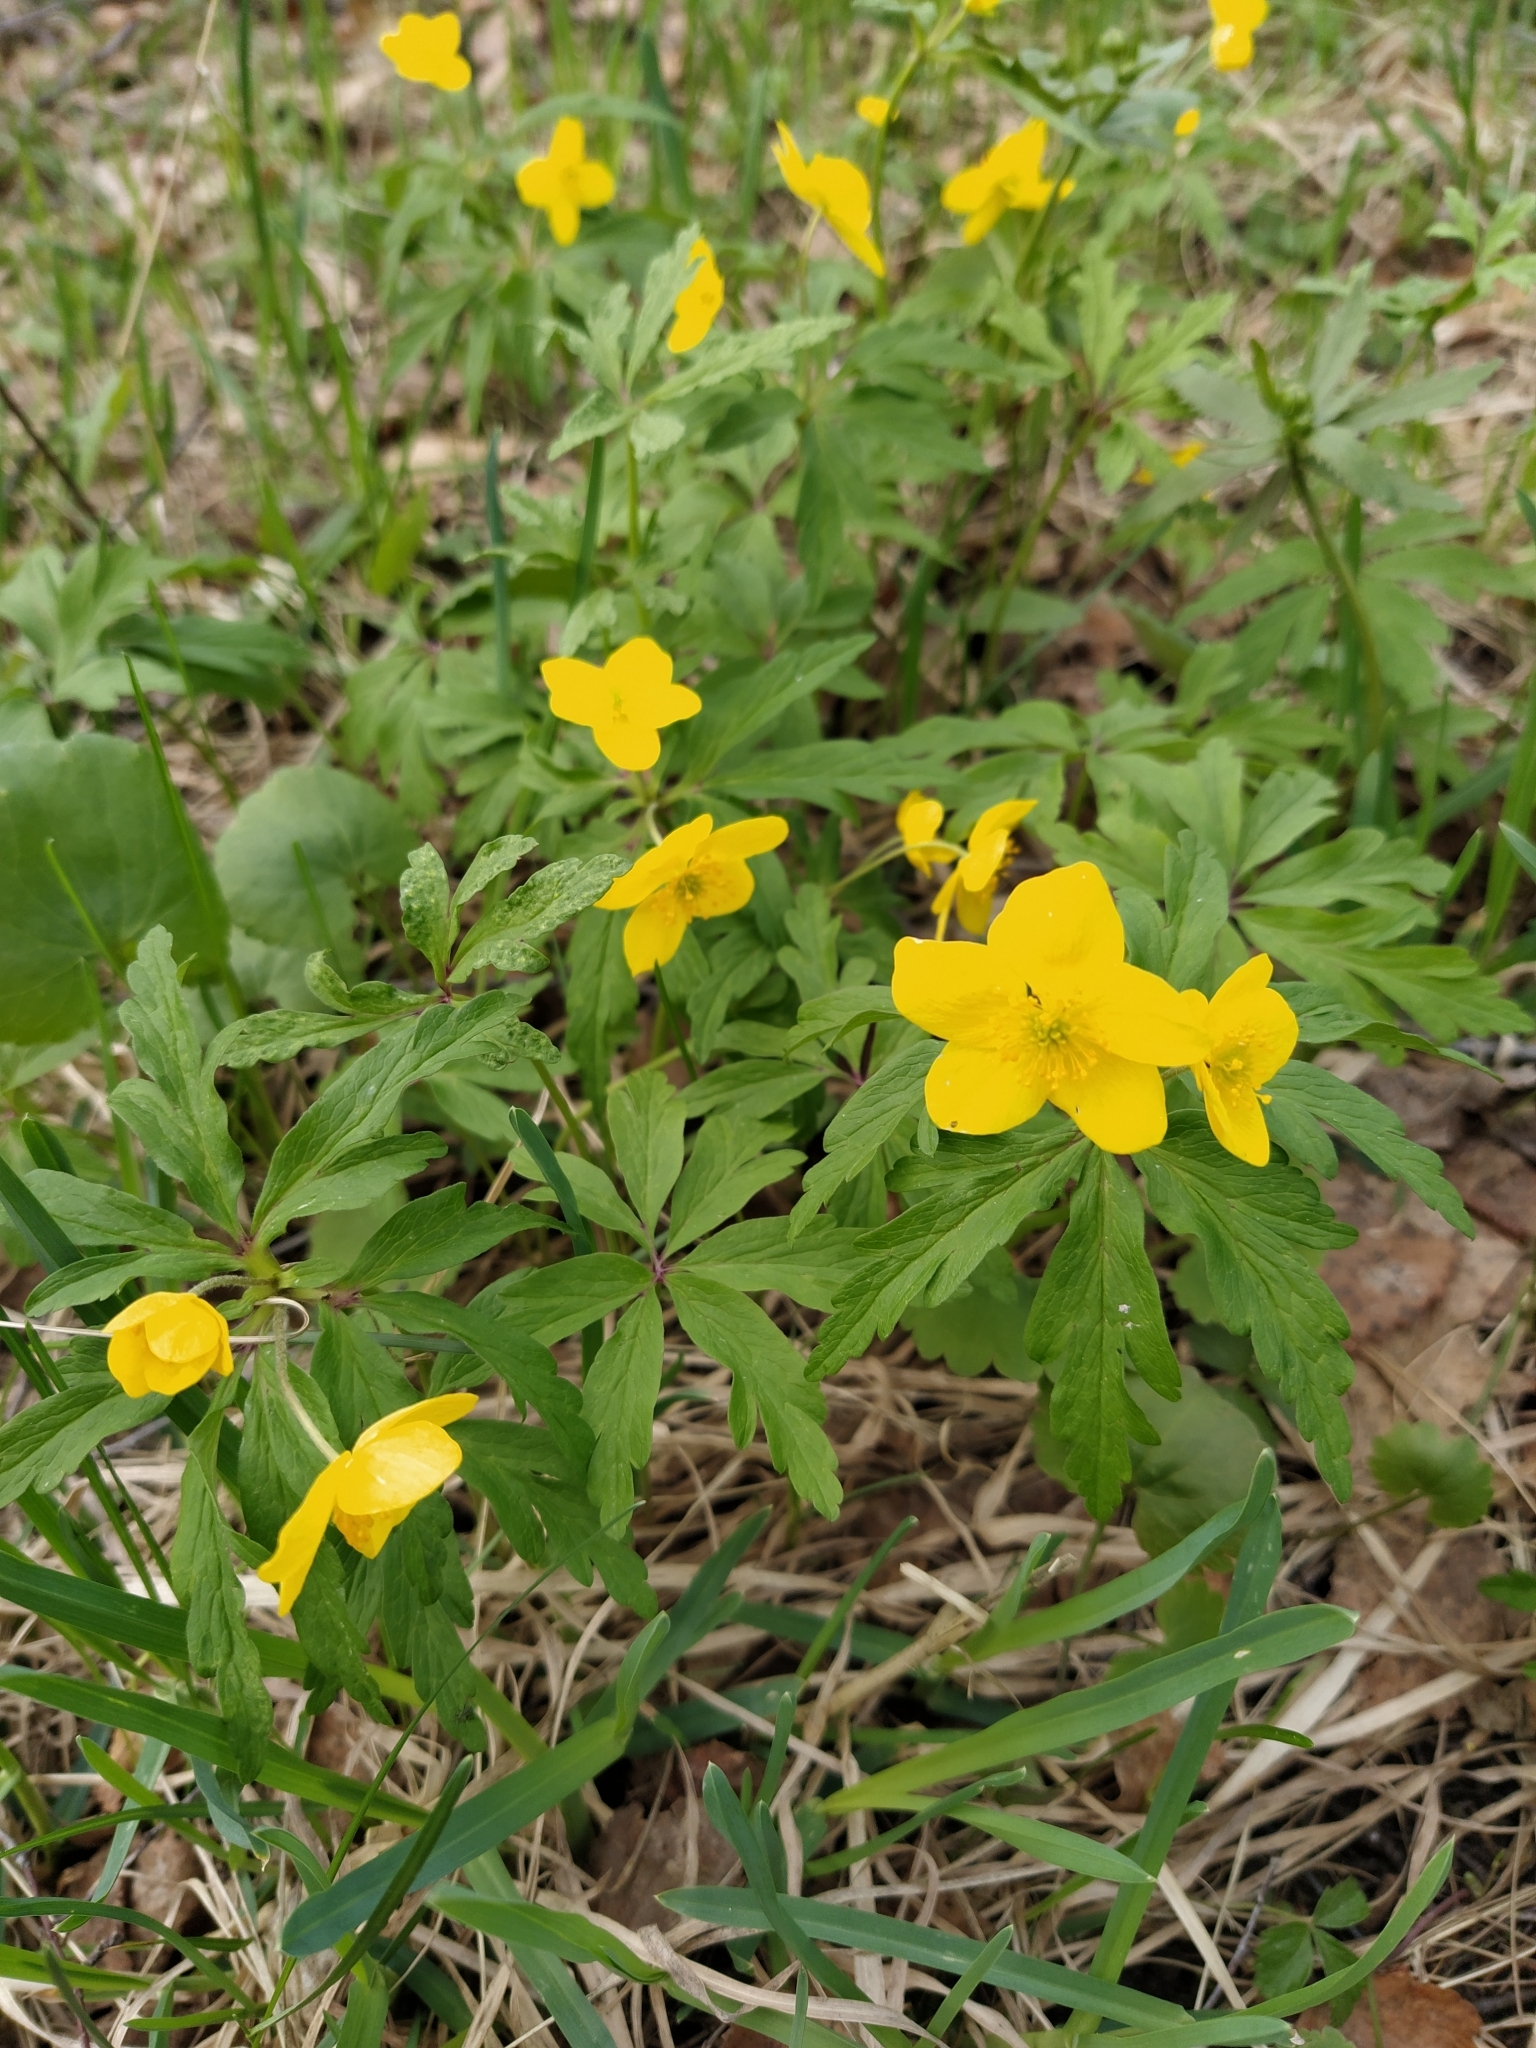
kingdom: Plantae
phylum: Tracheophyta
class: Magnoliopsida
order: Ranunculales
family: Ranunculaceae
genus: Anemone
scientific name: Anemone ranunculoides
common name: Yellow anemone
